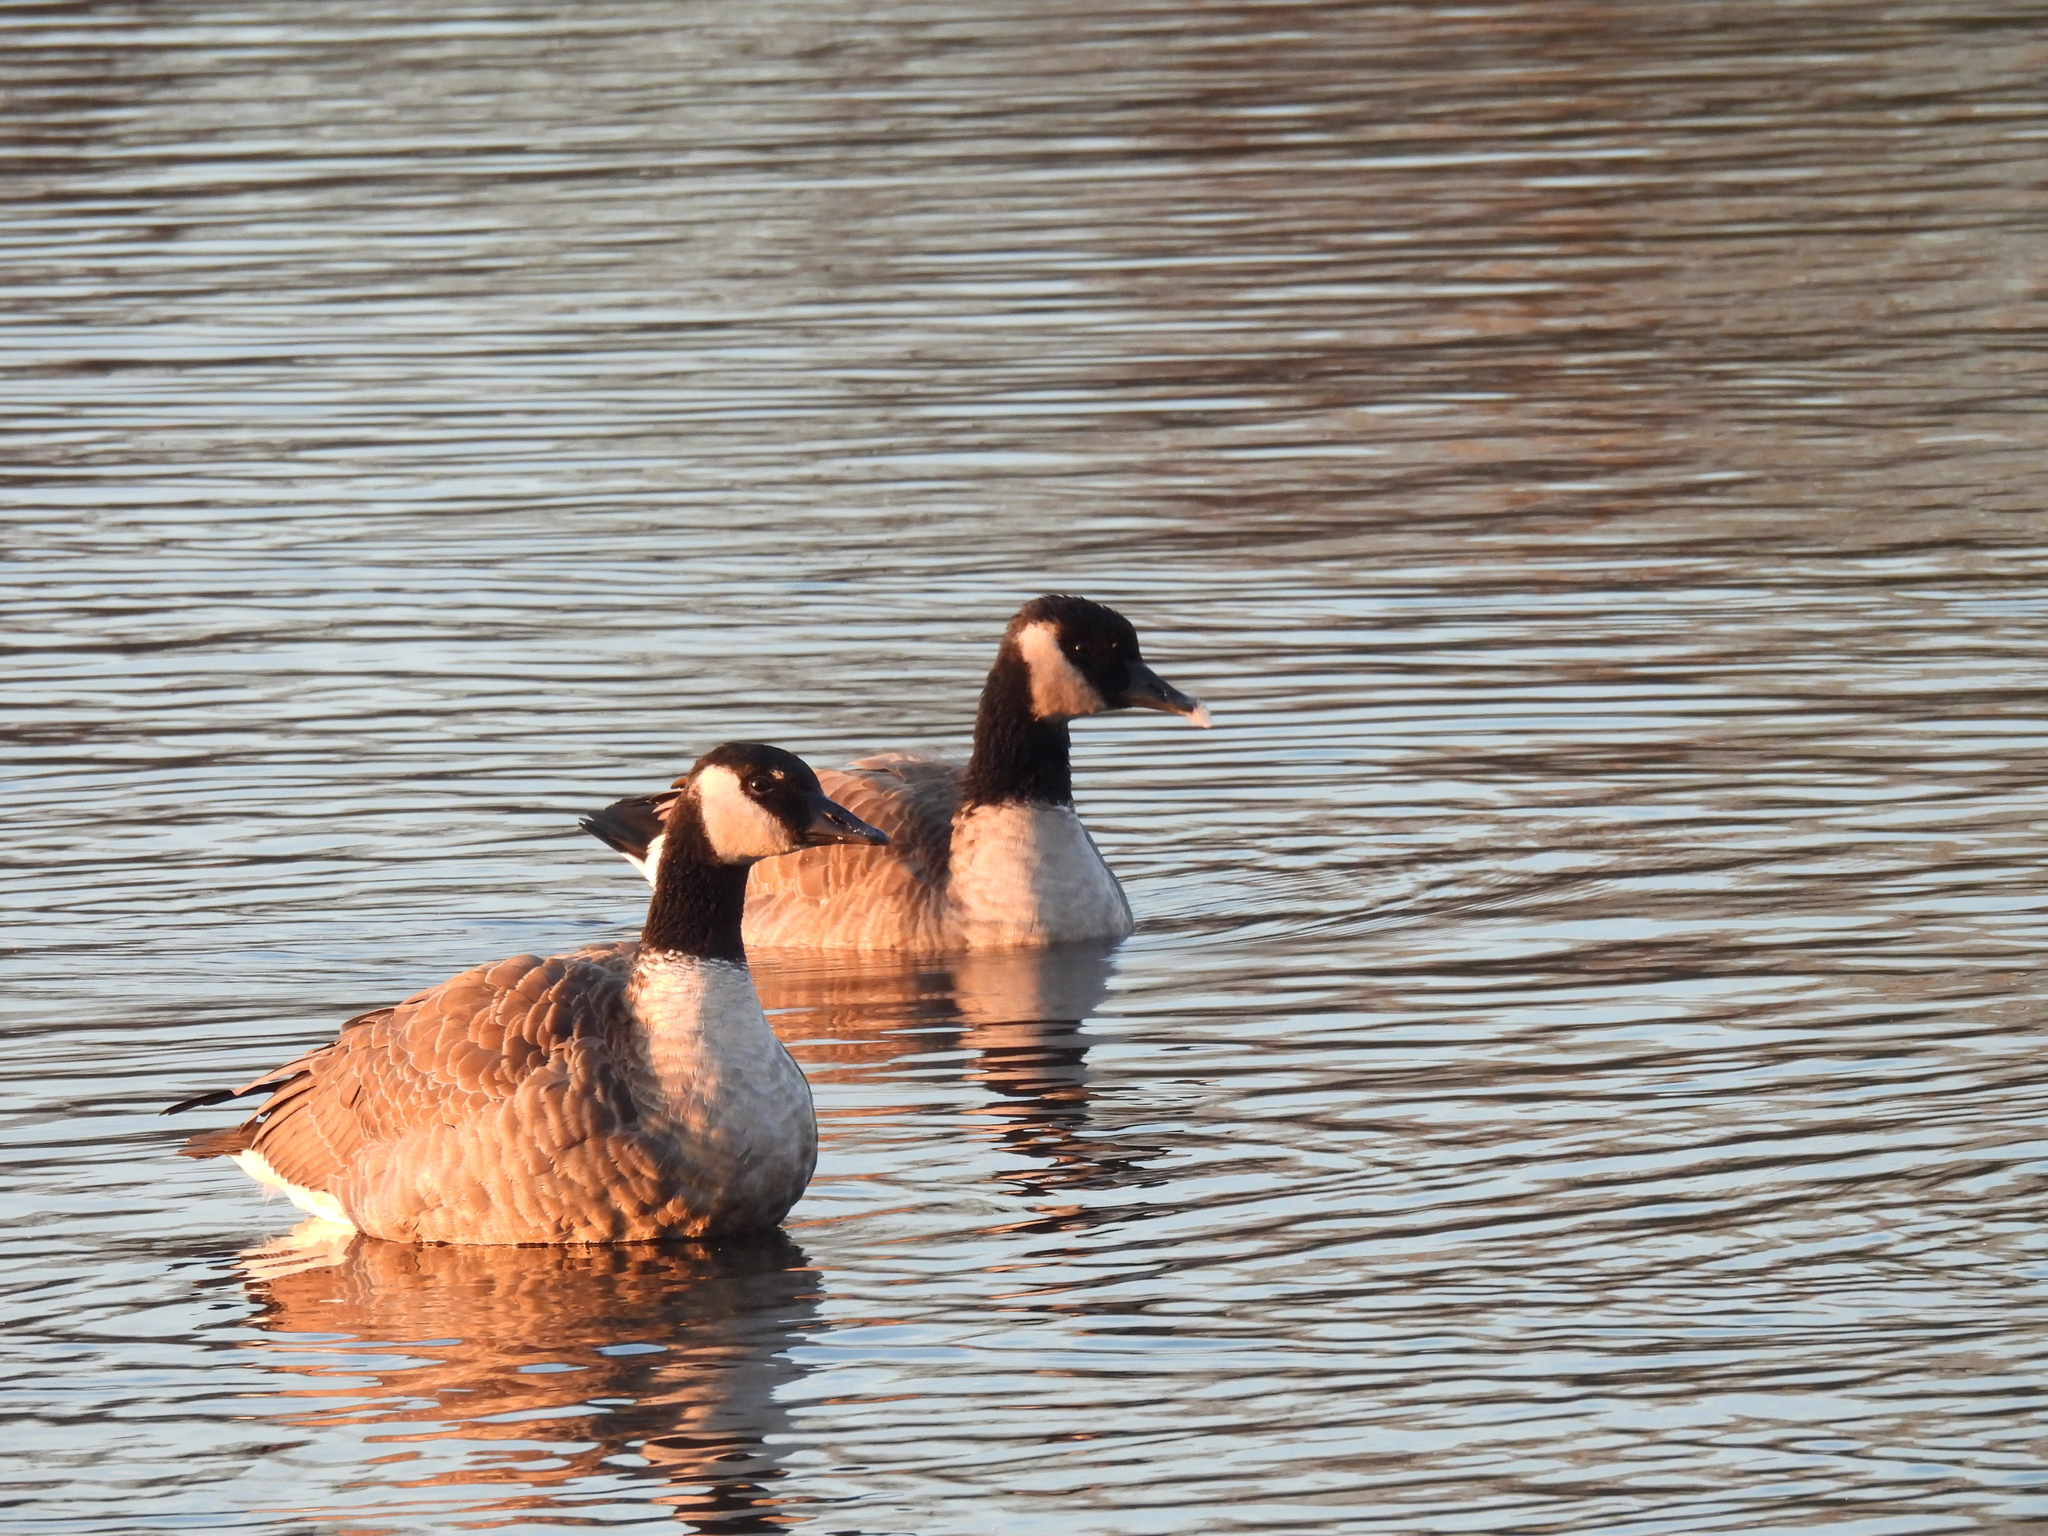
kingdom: Animalia
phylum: Chordata
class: Aves
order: Anseriformes
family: Anatidae
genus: Branta
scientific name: Branta canadensis
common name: Canada goose
